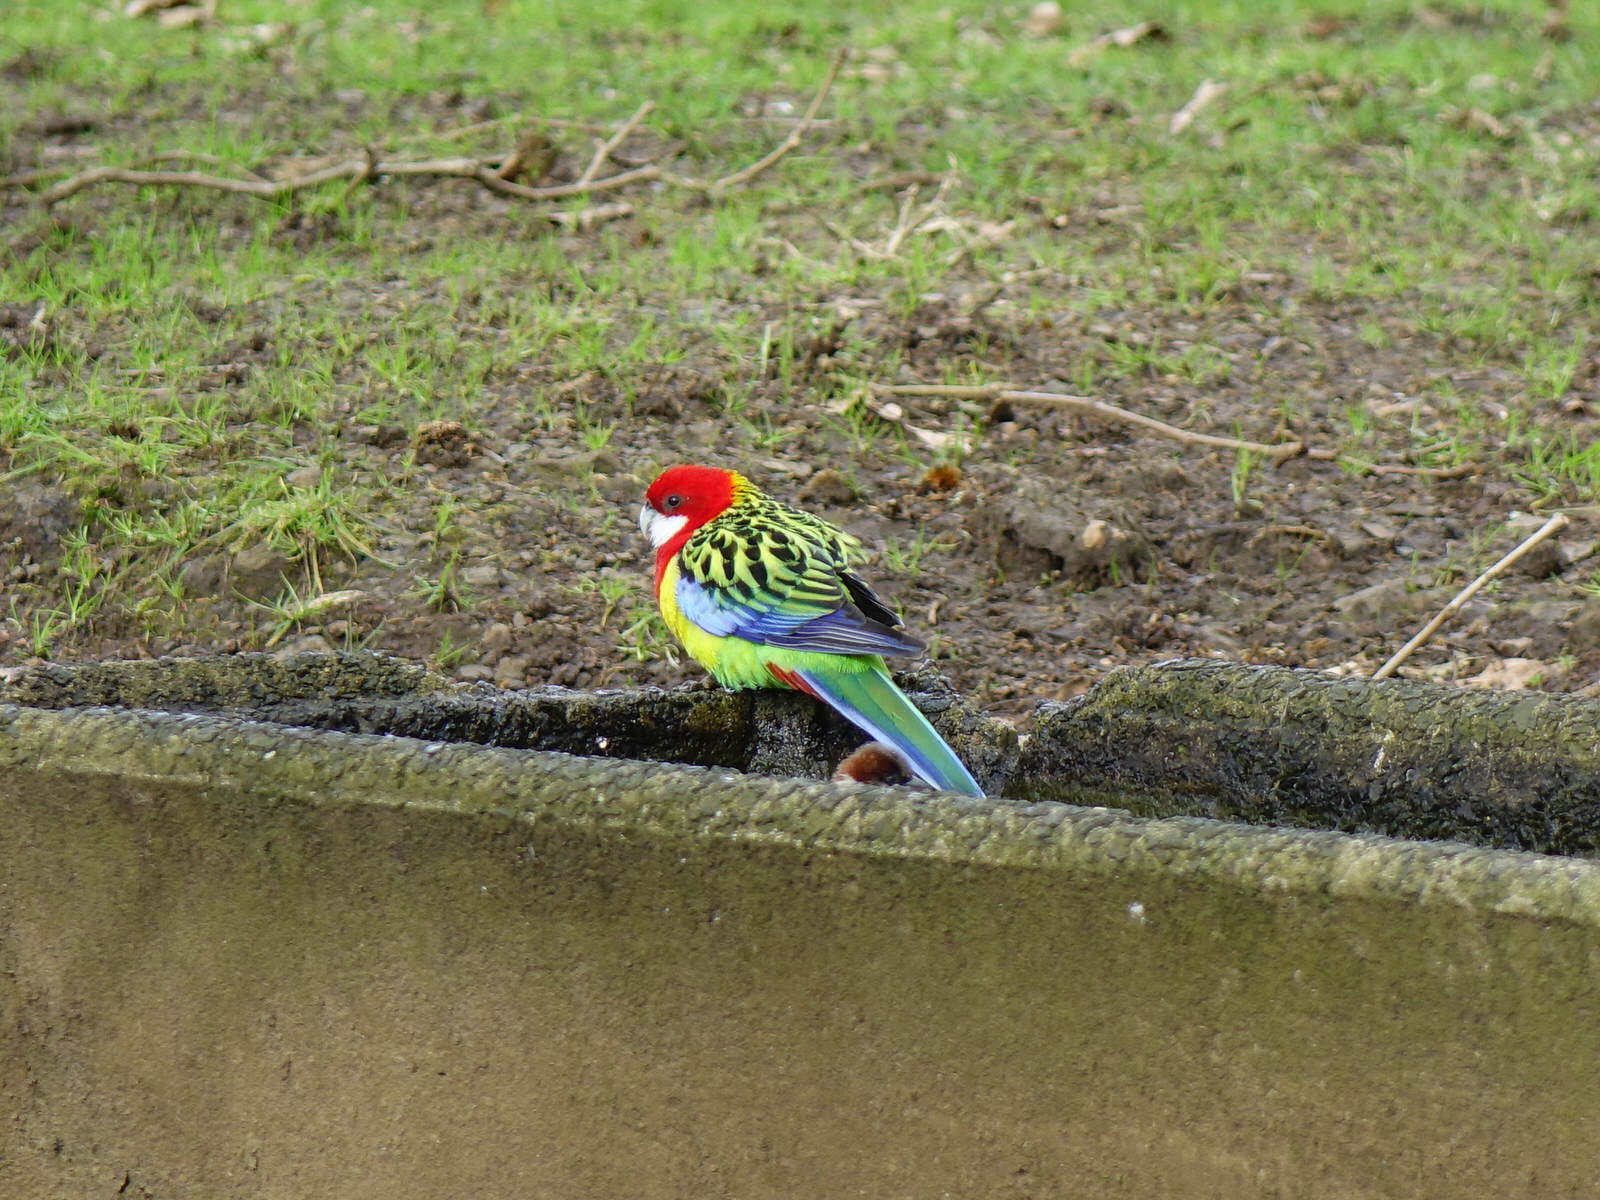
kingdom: Animalia
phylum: Chordata
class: Aves
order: Psittaciformes
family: Psittacidae
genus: Platycercus
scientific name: Platycercus eximius
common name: Eastern rosella
